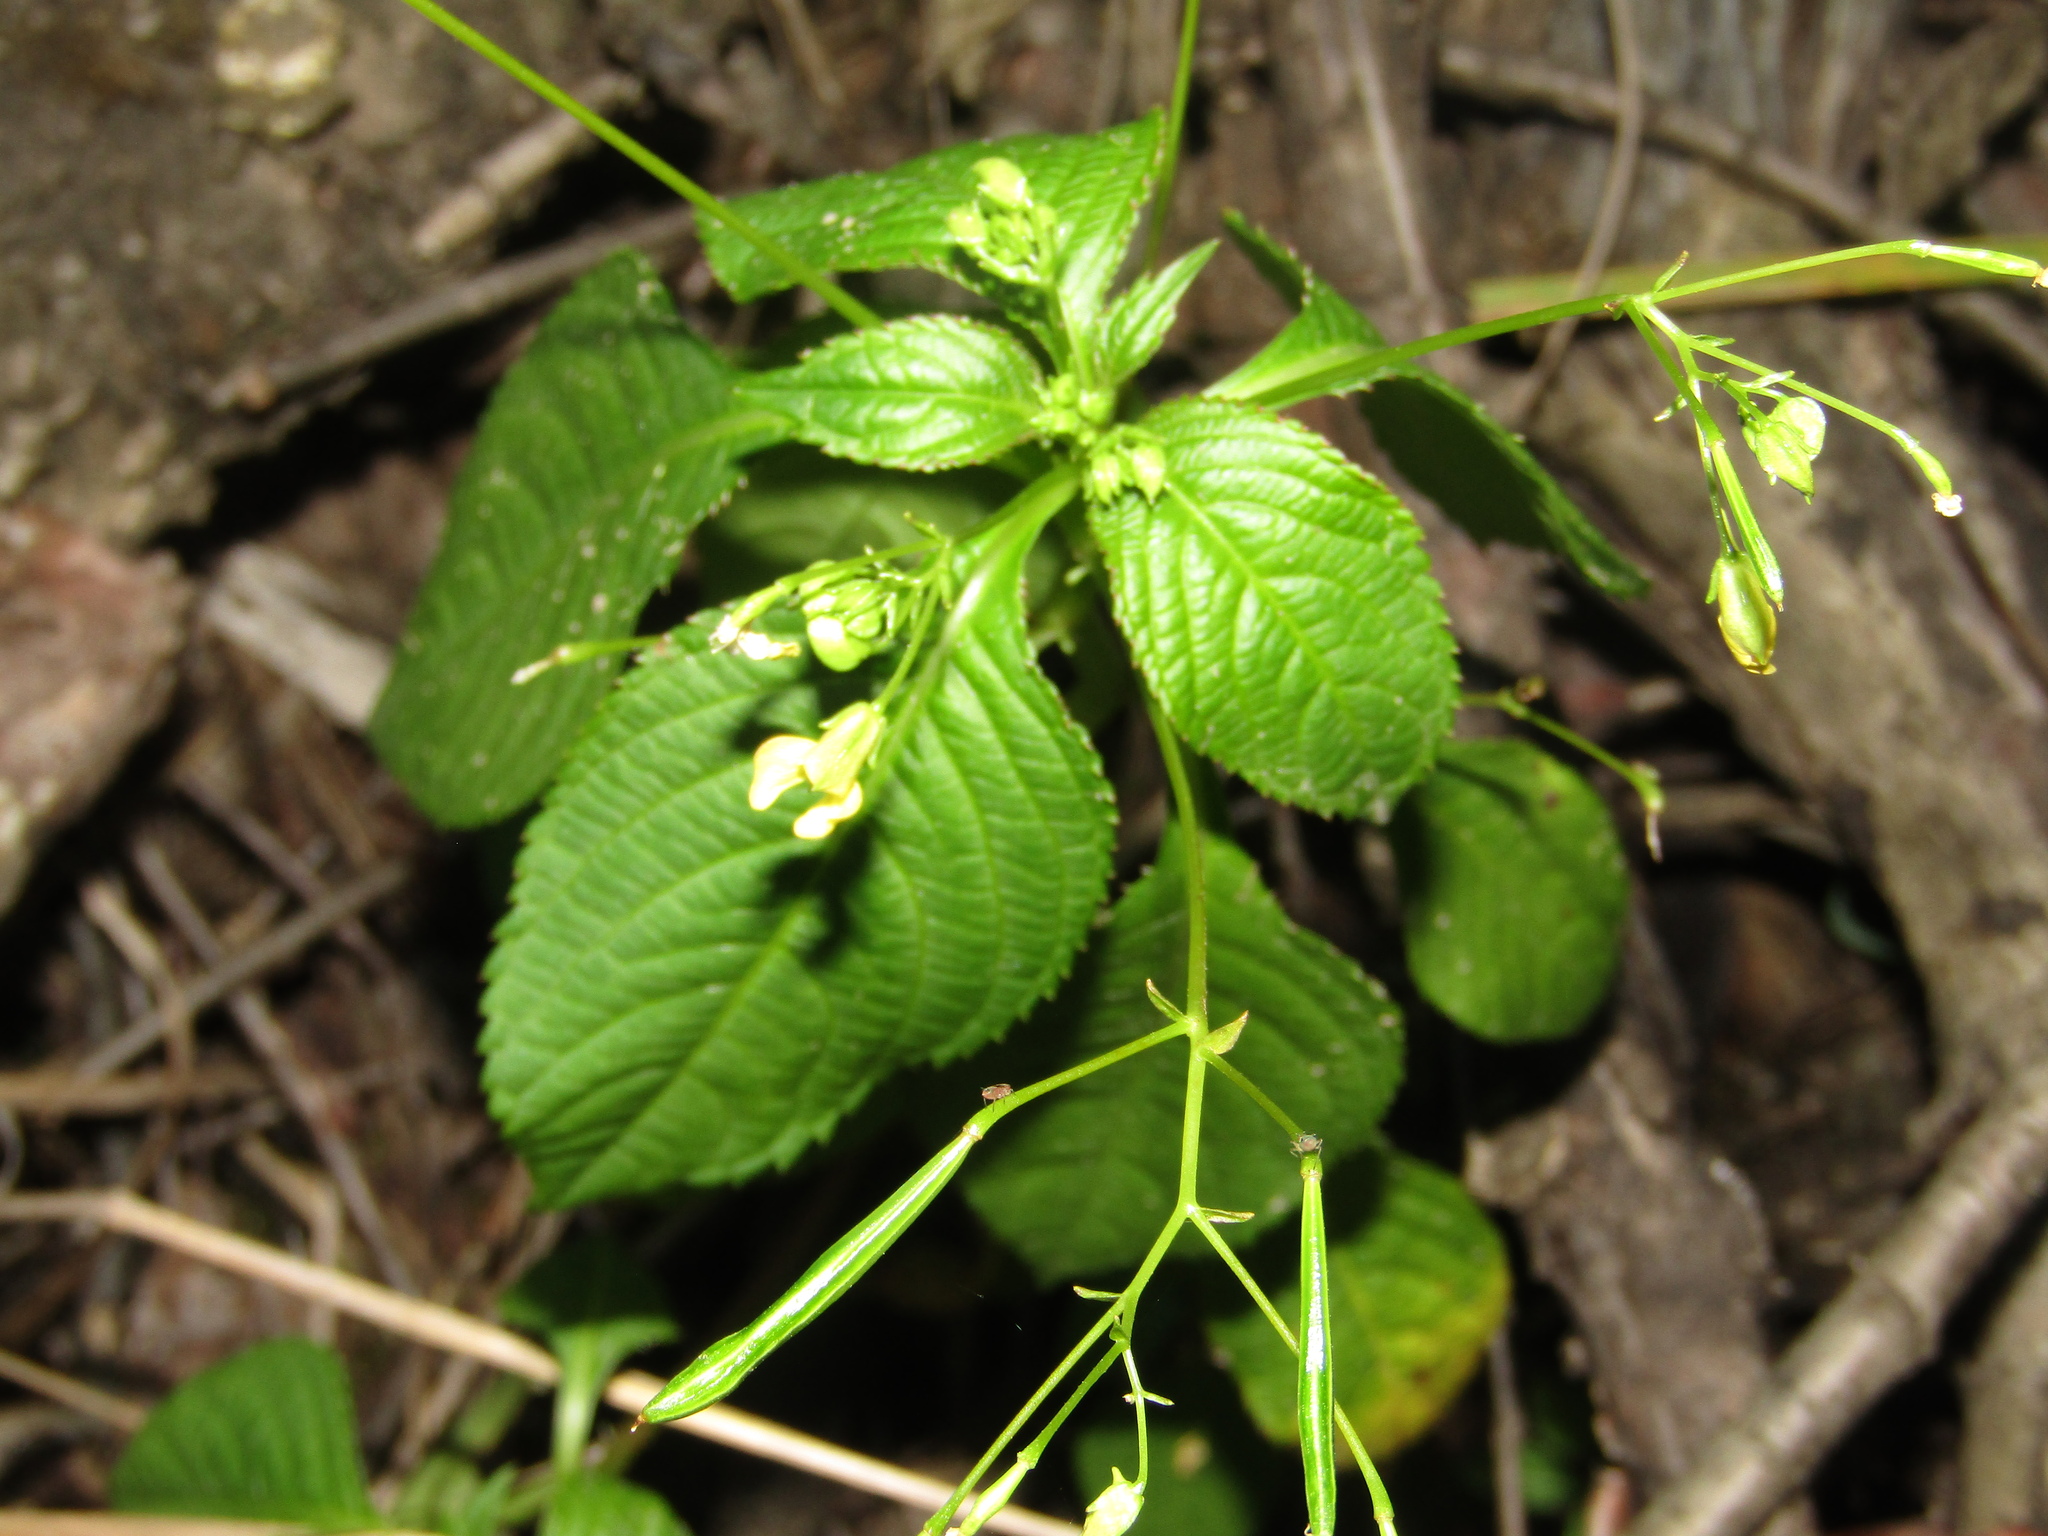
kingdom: Plantae
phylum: Tracheophyta
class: Magnoliopsida
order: Ericales
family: Balsaminaceae
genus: Impatiens
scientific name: Impatiens parviflora
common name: Small balsam
